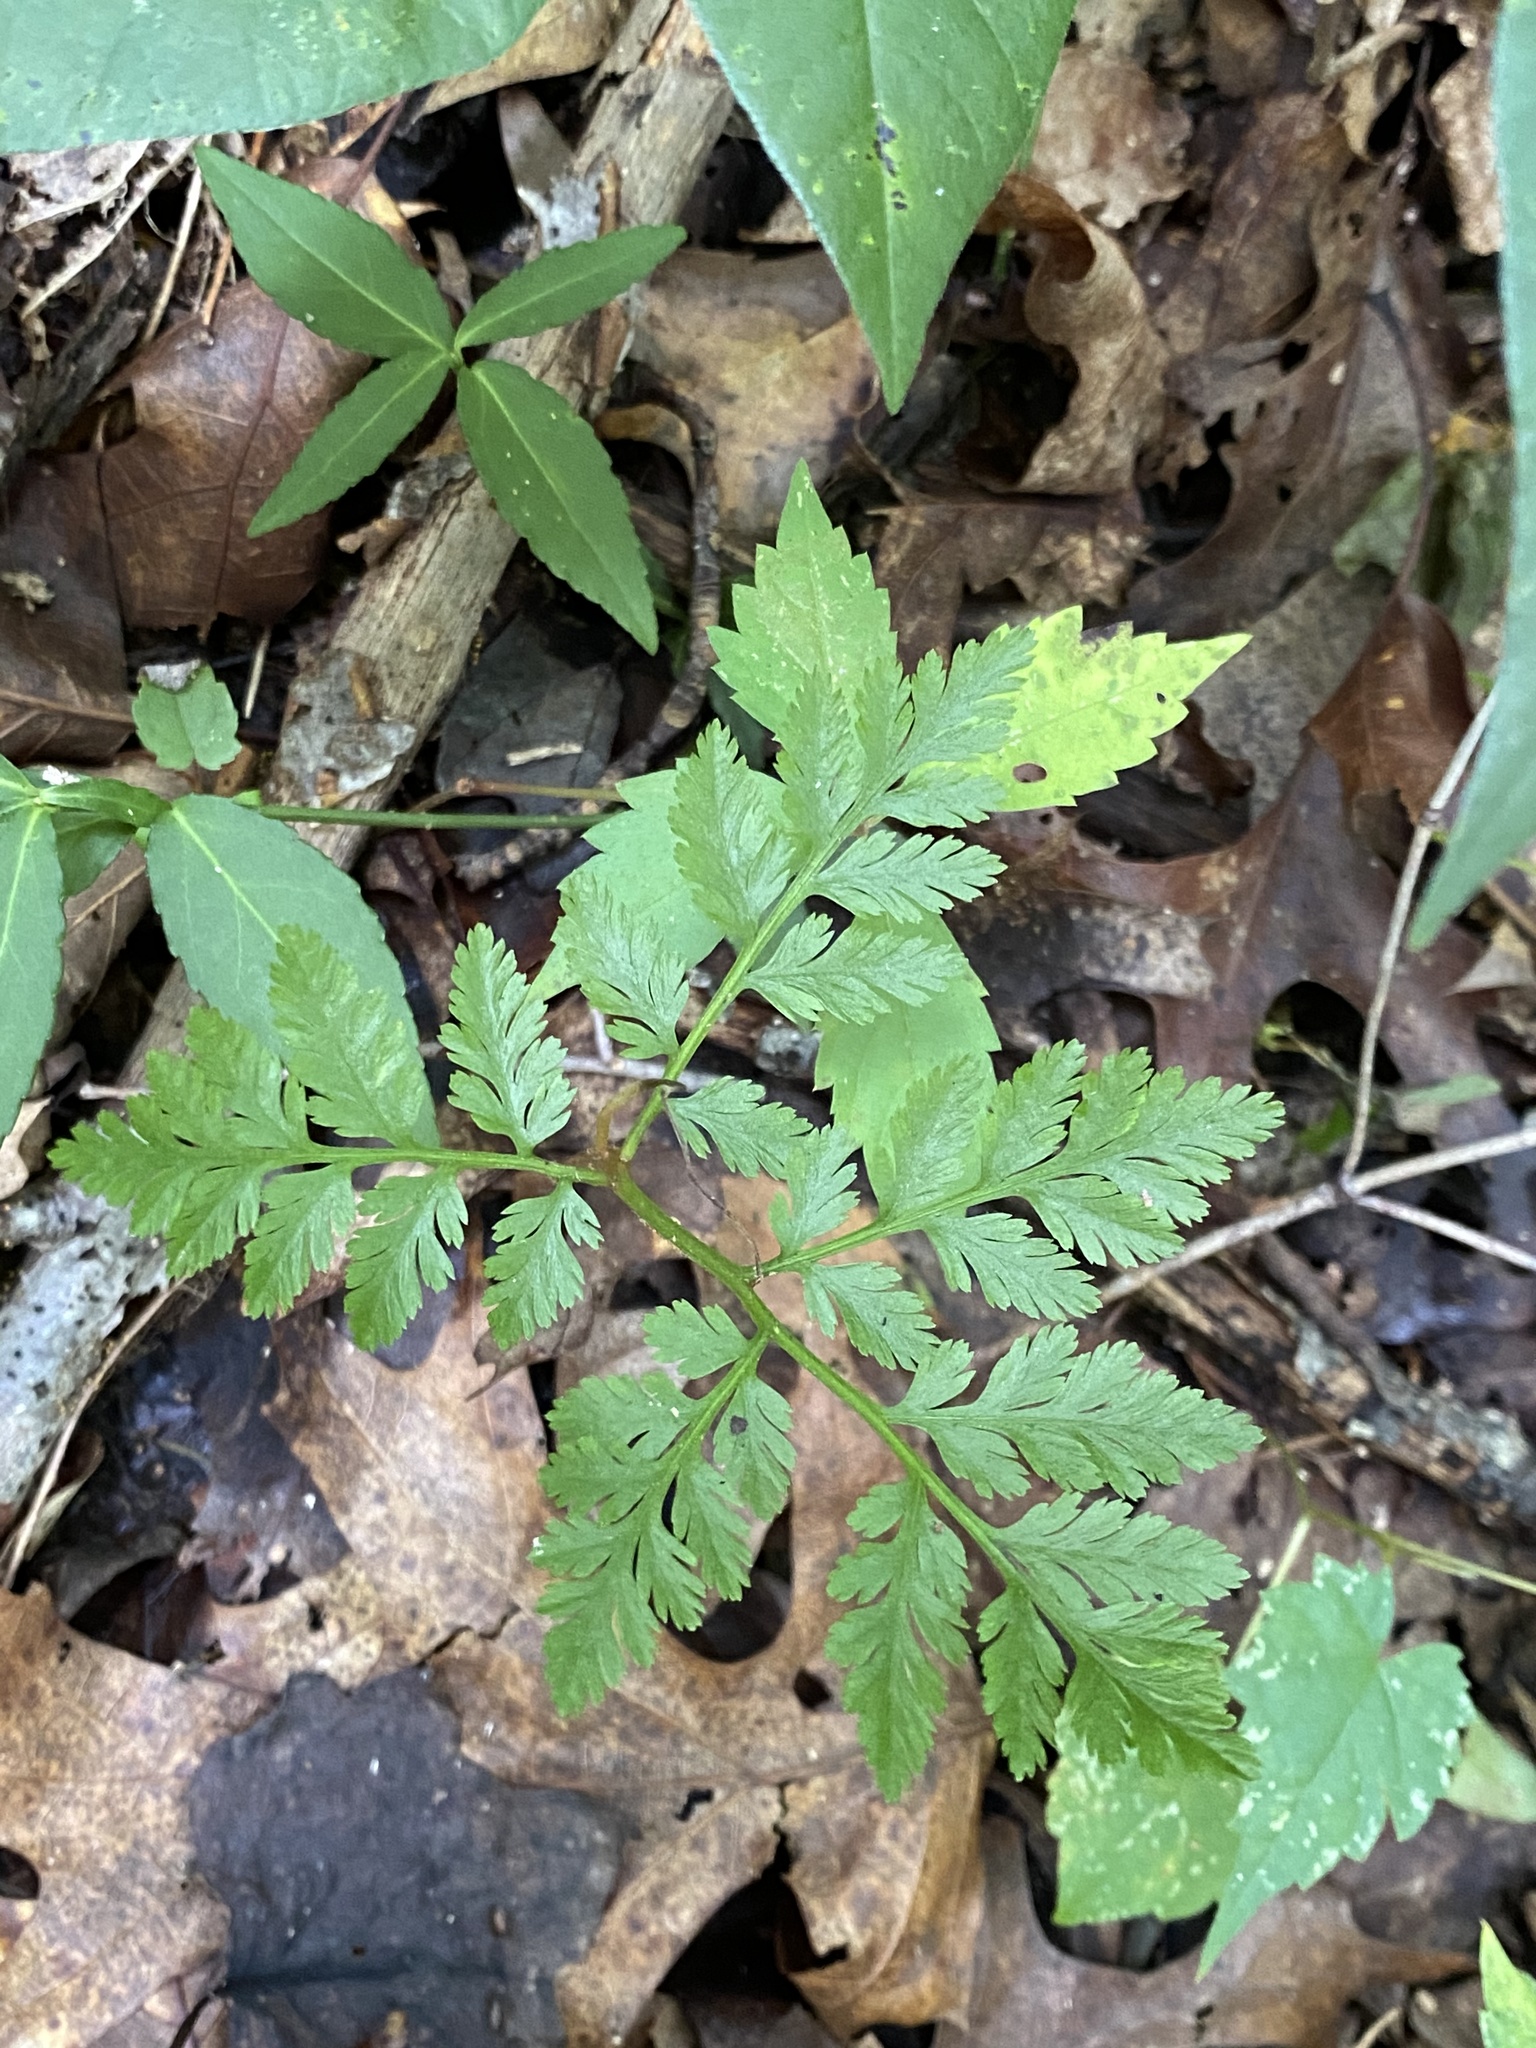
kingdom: Plantae
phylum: Tracheophyta
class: Polypodiopsida
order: Ophioglossales
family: Ophioglossaceae
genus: Botrypus
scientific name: Botrypus virginianus
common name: Common grapefern
